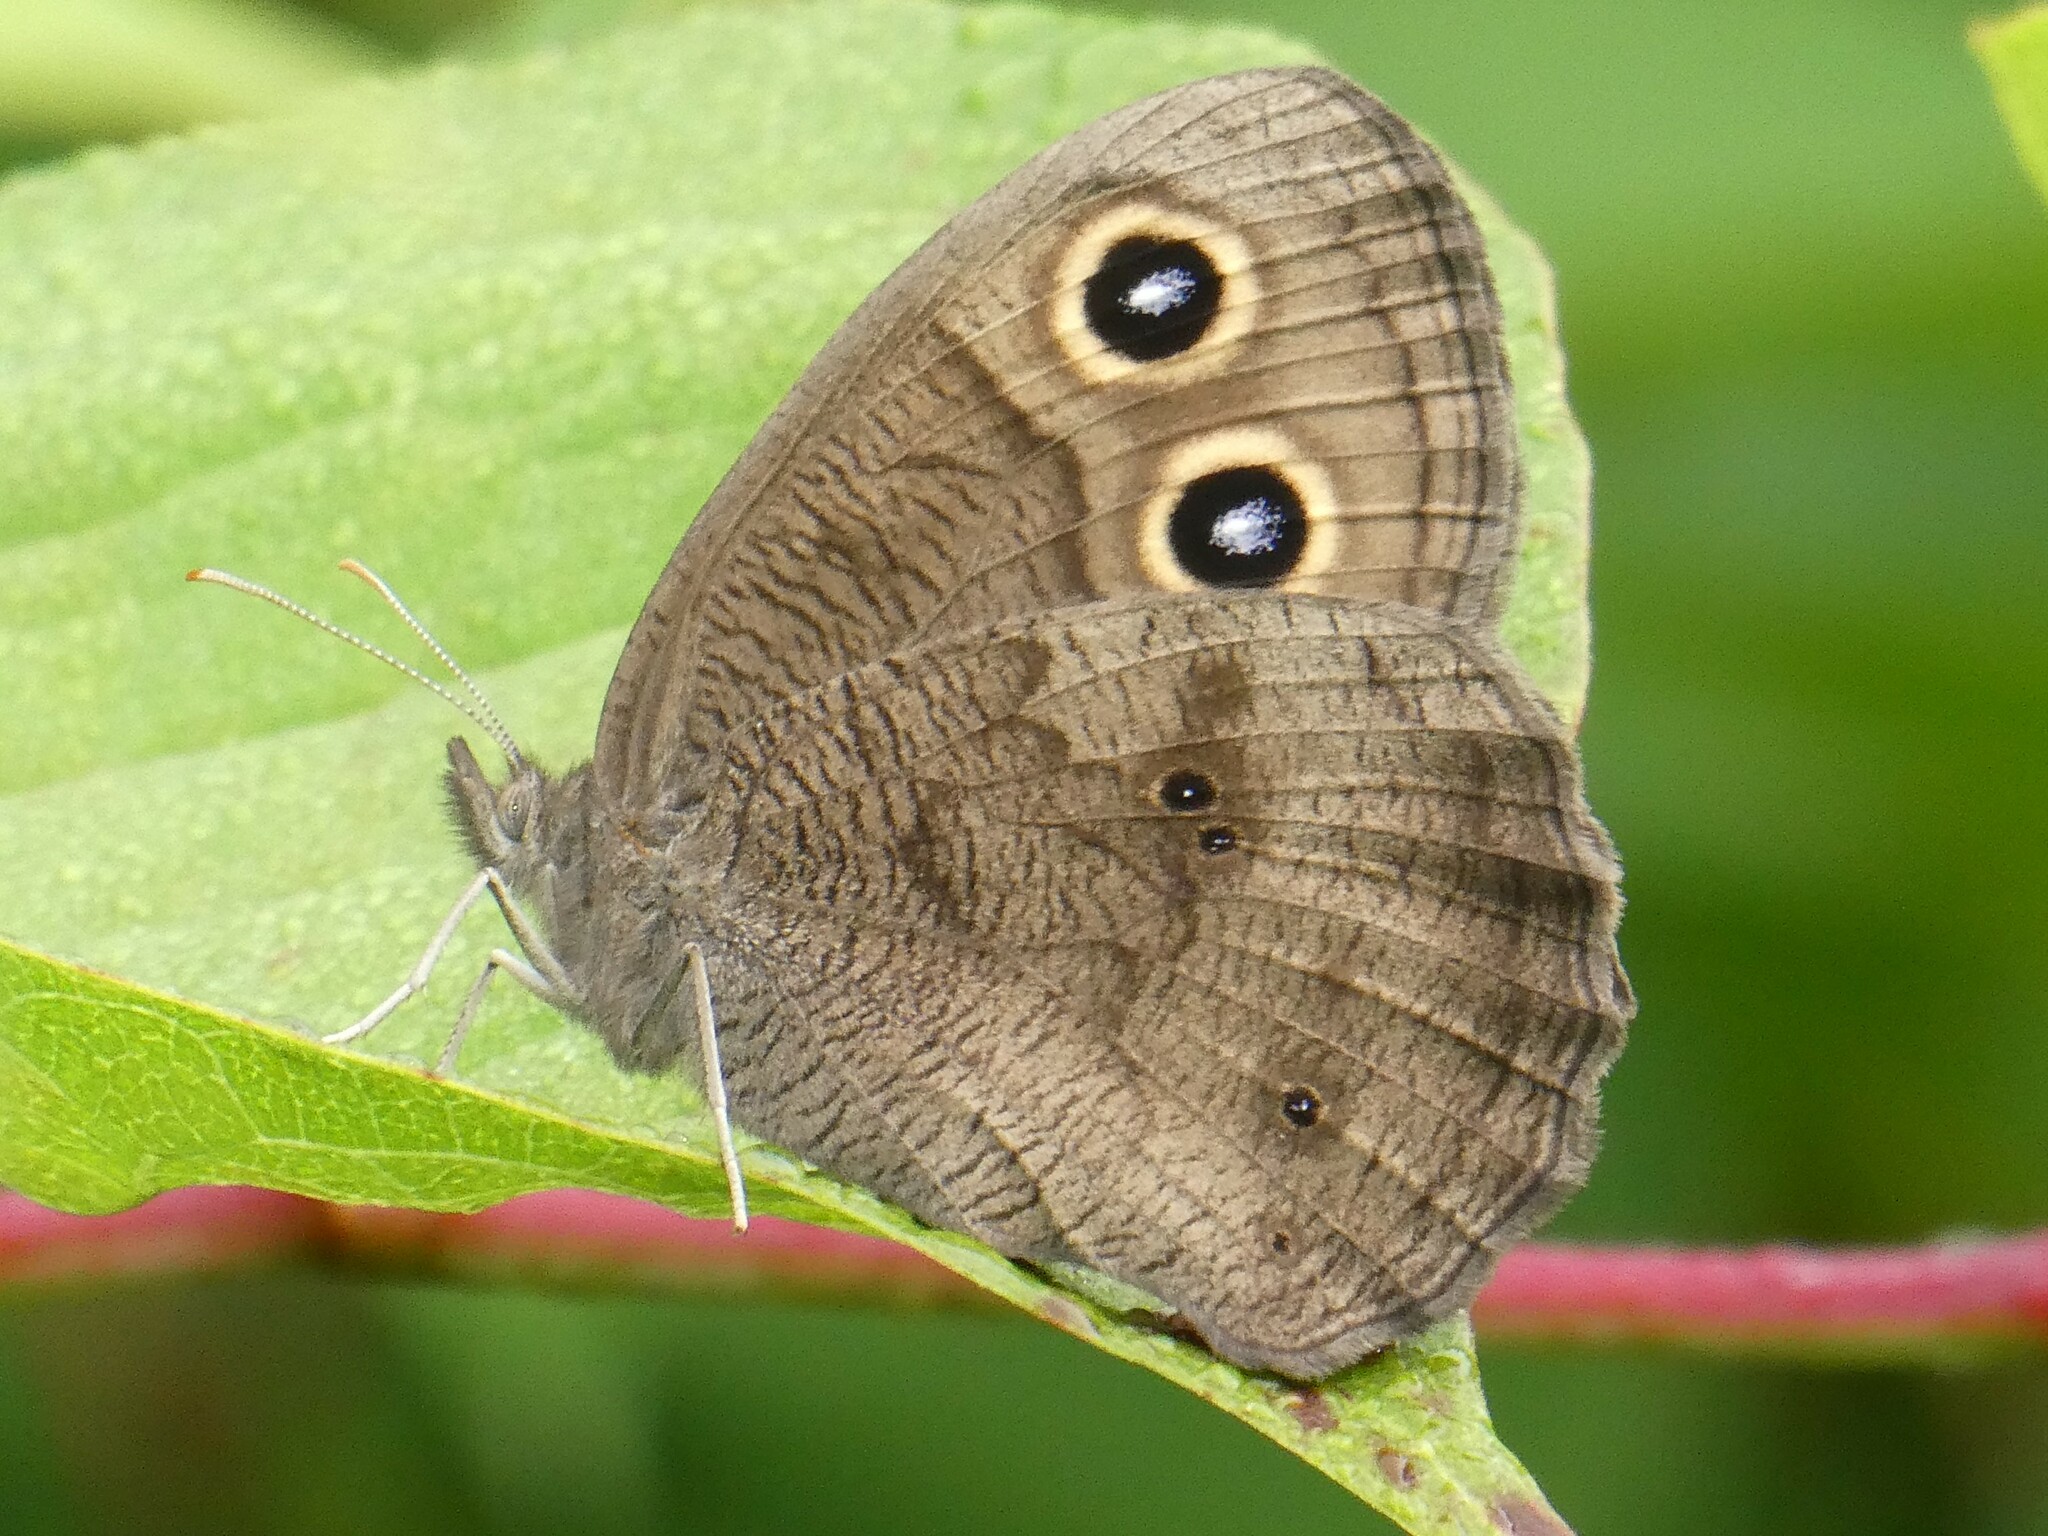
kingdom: Animalia
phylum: Arthropoda
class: Insecta
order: Lepidoptera
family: Nymphalidae
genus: Cercyonis
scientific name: Cercyonis pegala
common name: Common wood-nymph
